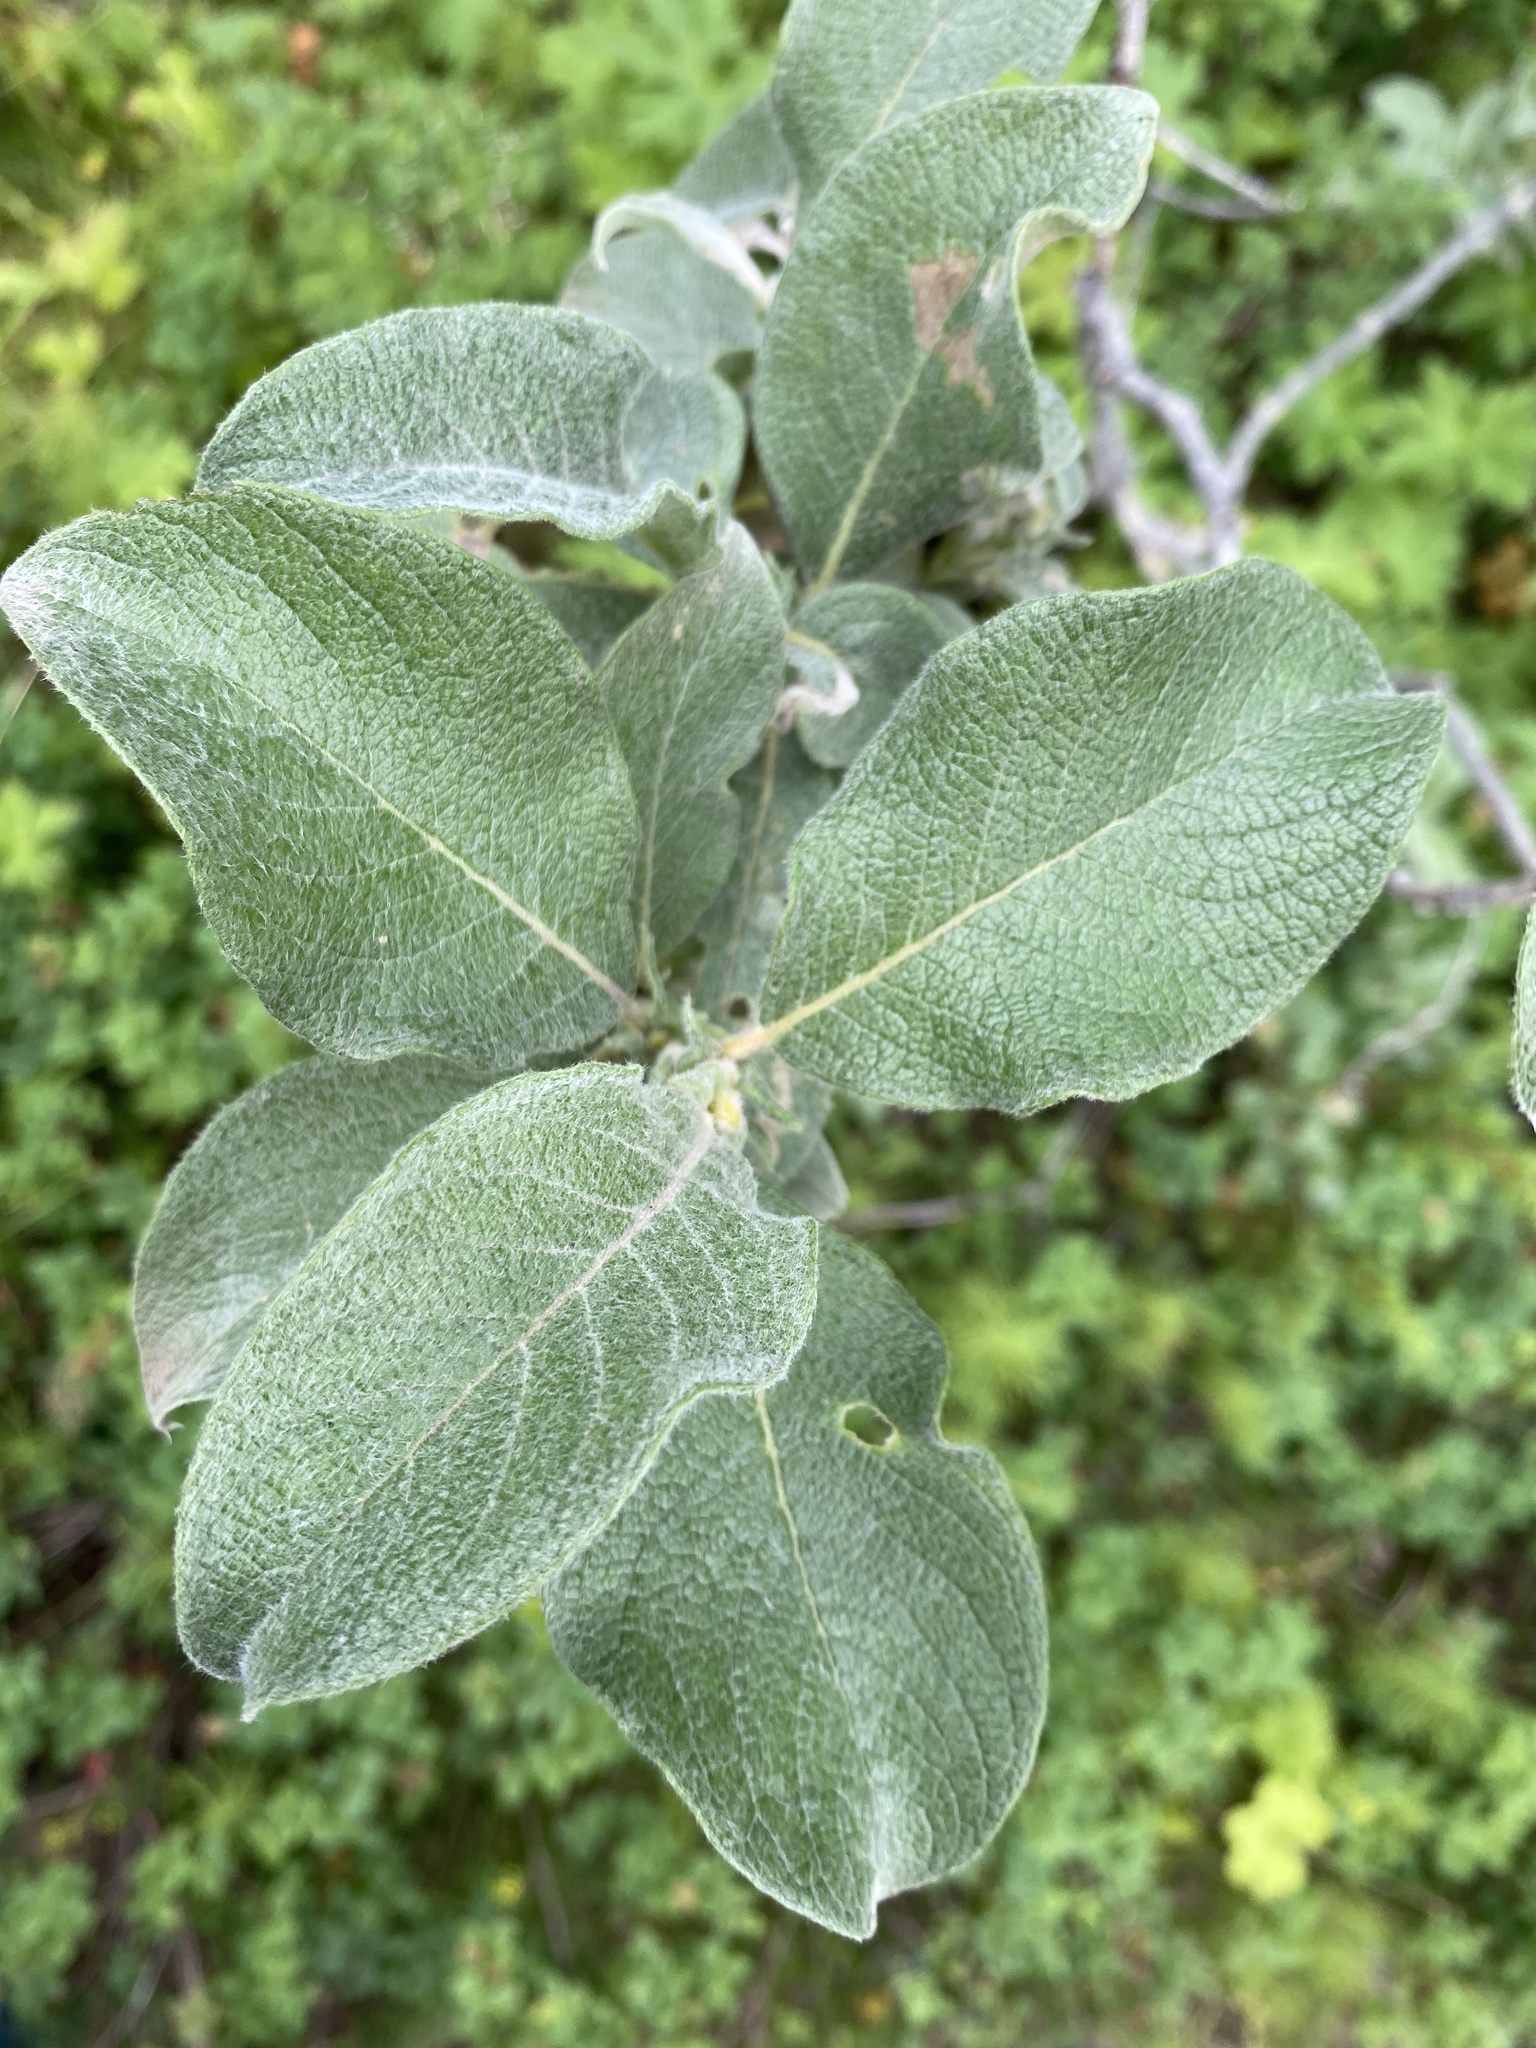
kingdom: Plantae
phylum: Tracheophyta
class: Magnoliopsida
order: Malpighiales
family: Salicaceae
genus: Salix
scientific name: Salix lanata
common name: Woolly willow
